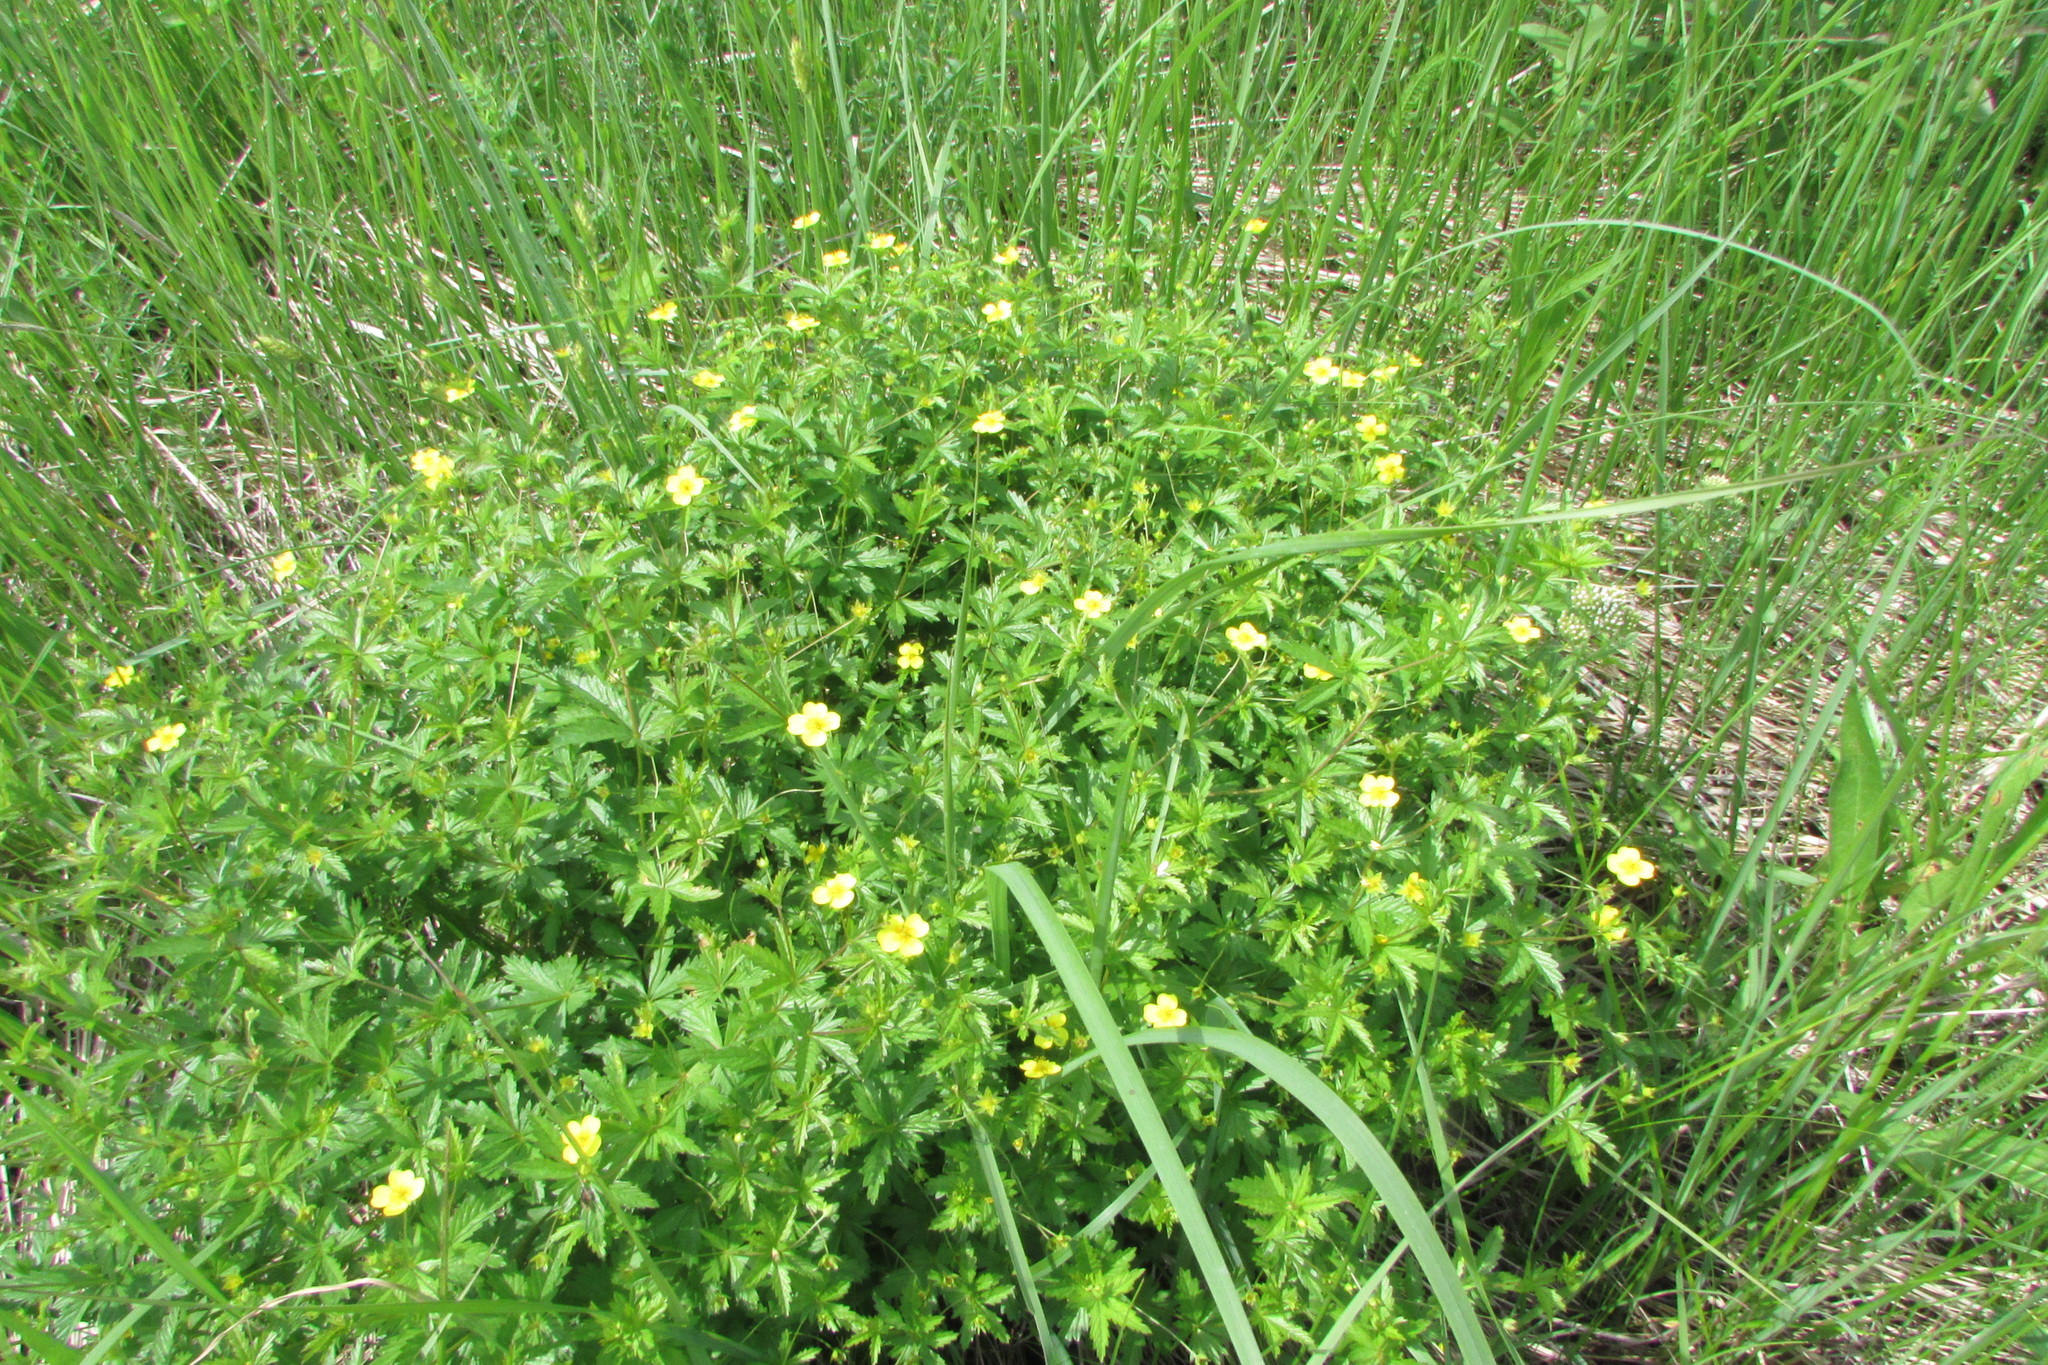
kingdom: Plantae
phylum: Tracheophyta
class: Magnoliopsida
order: Rosales
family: Rosaceae
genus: Potentilla
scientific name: Potentilla erecta
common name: Tormentil
